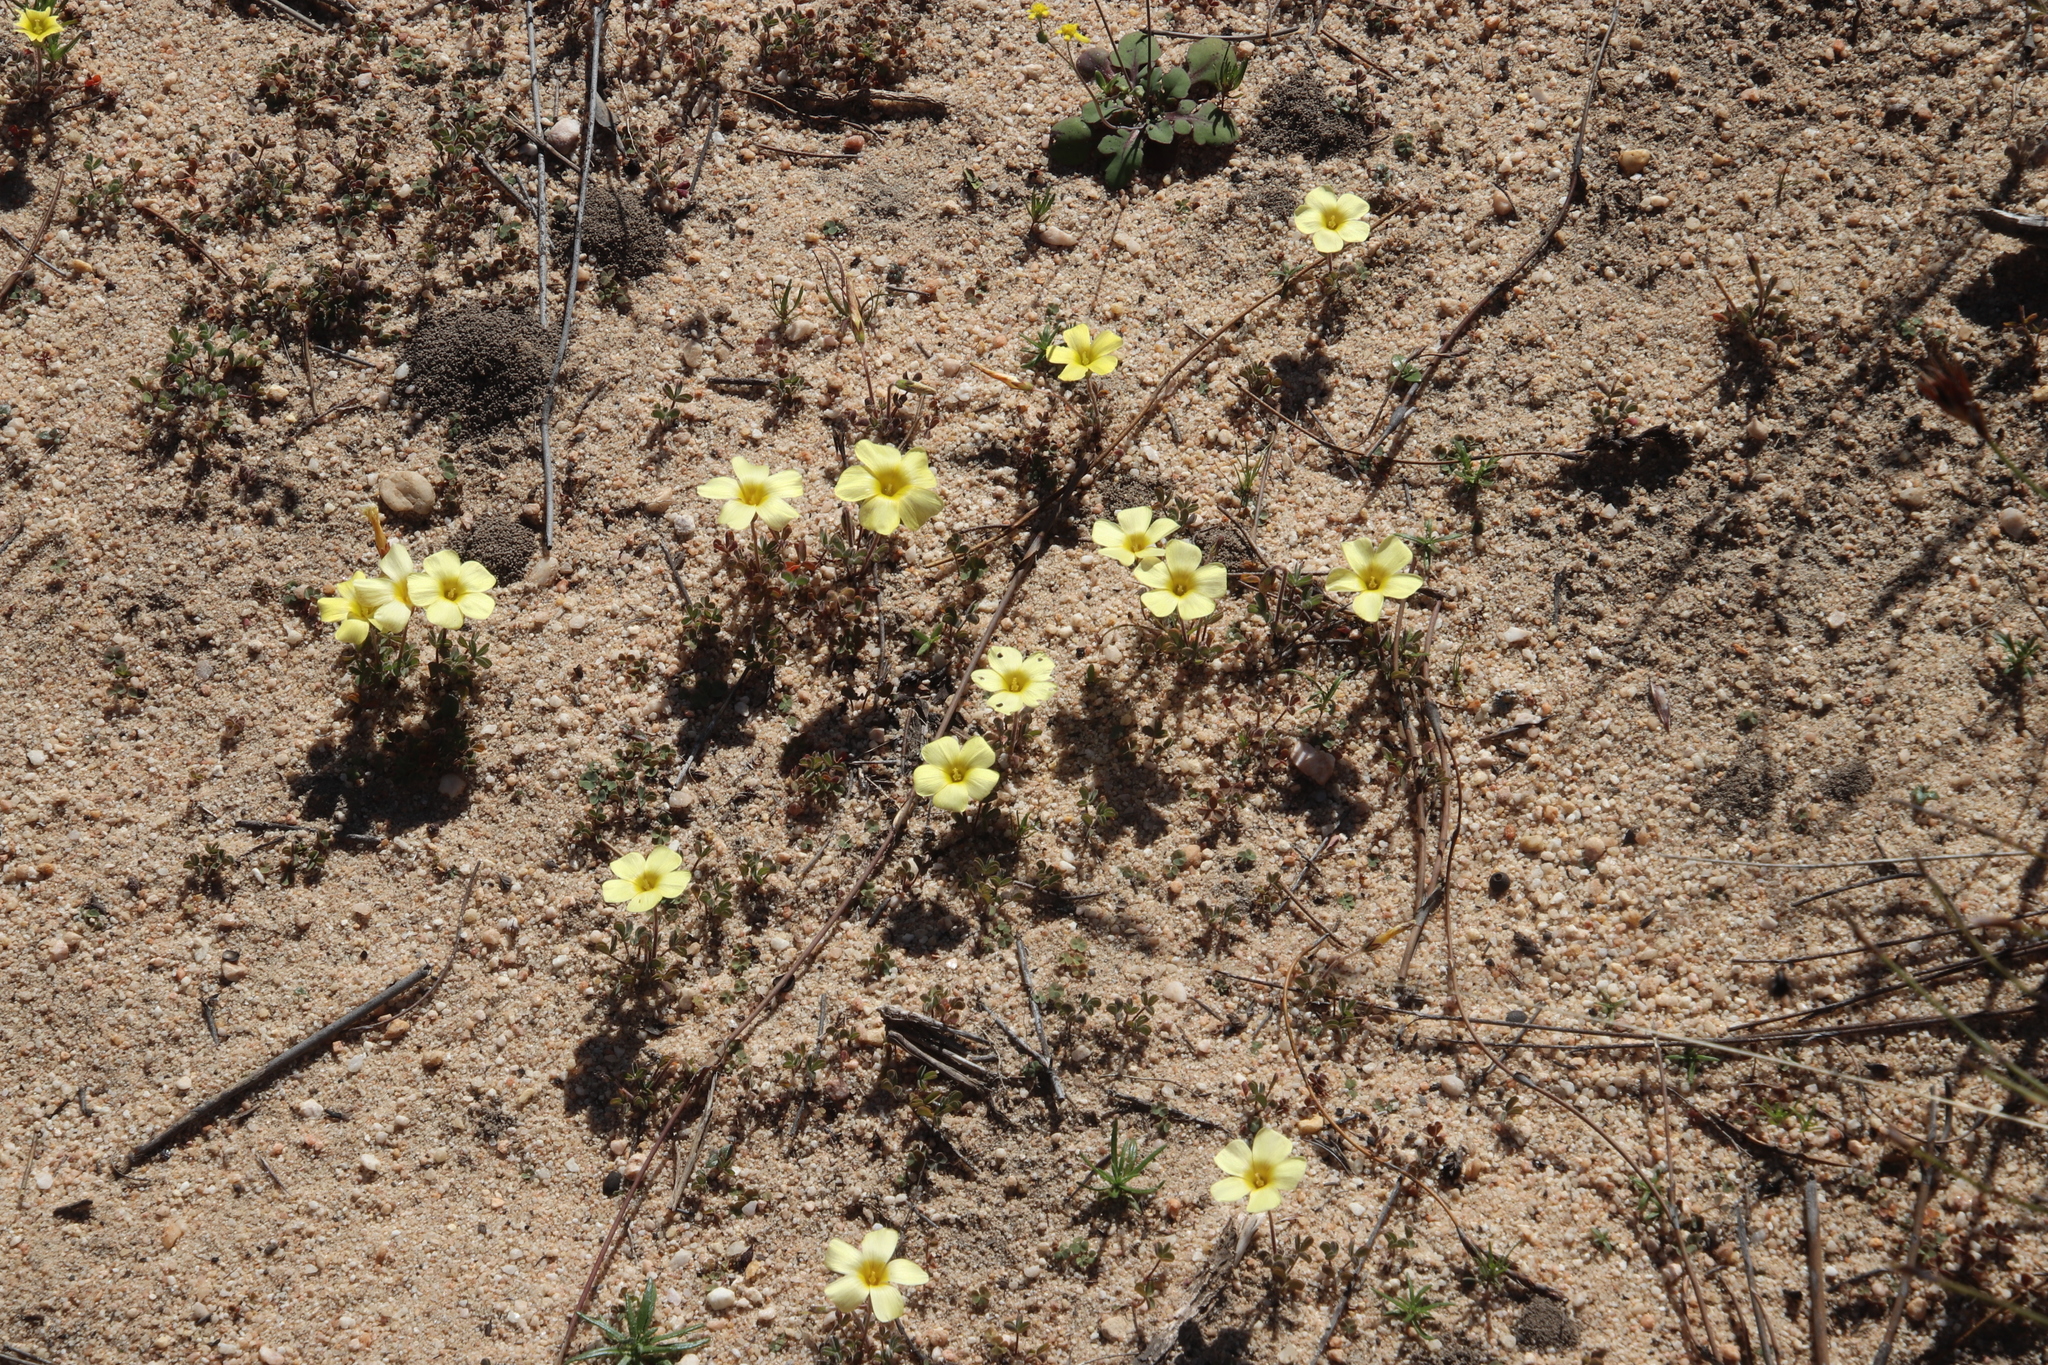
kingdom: Plantae
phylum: Tracheophyta
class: Magnoliopsida
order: Oxalidales
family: Oxalidaceae
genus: Oxalis
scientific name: Oxalis obtusa
